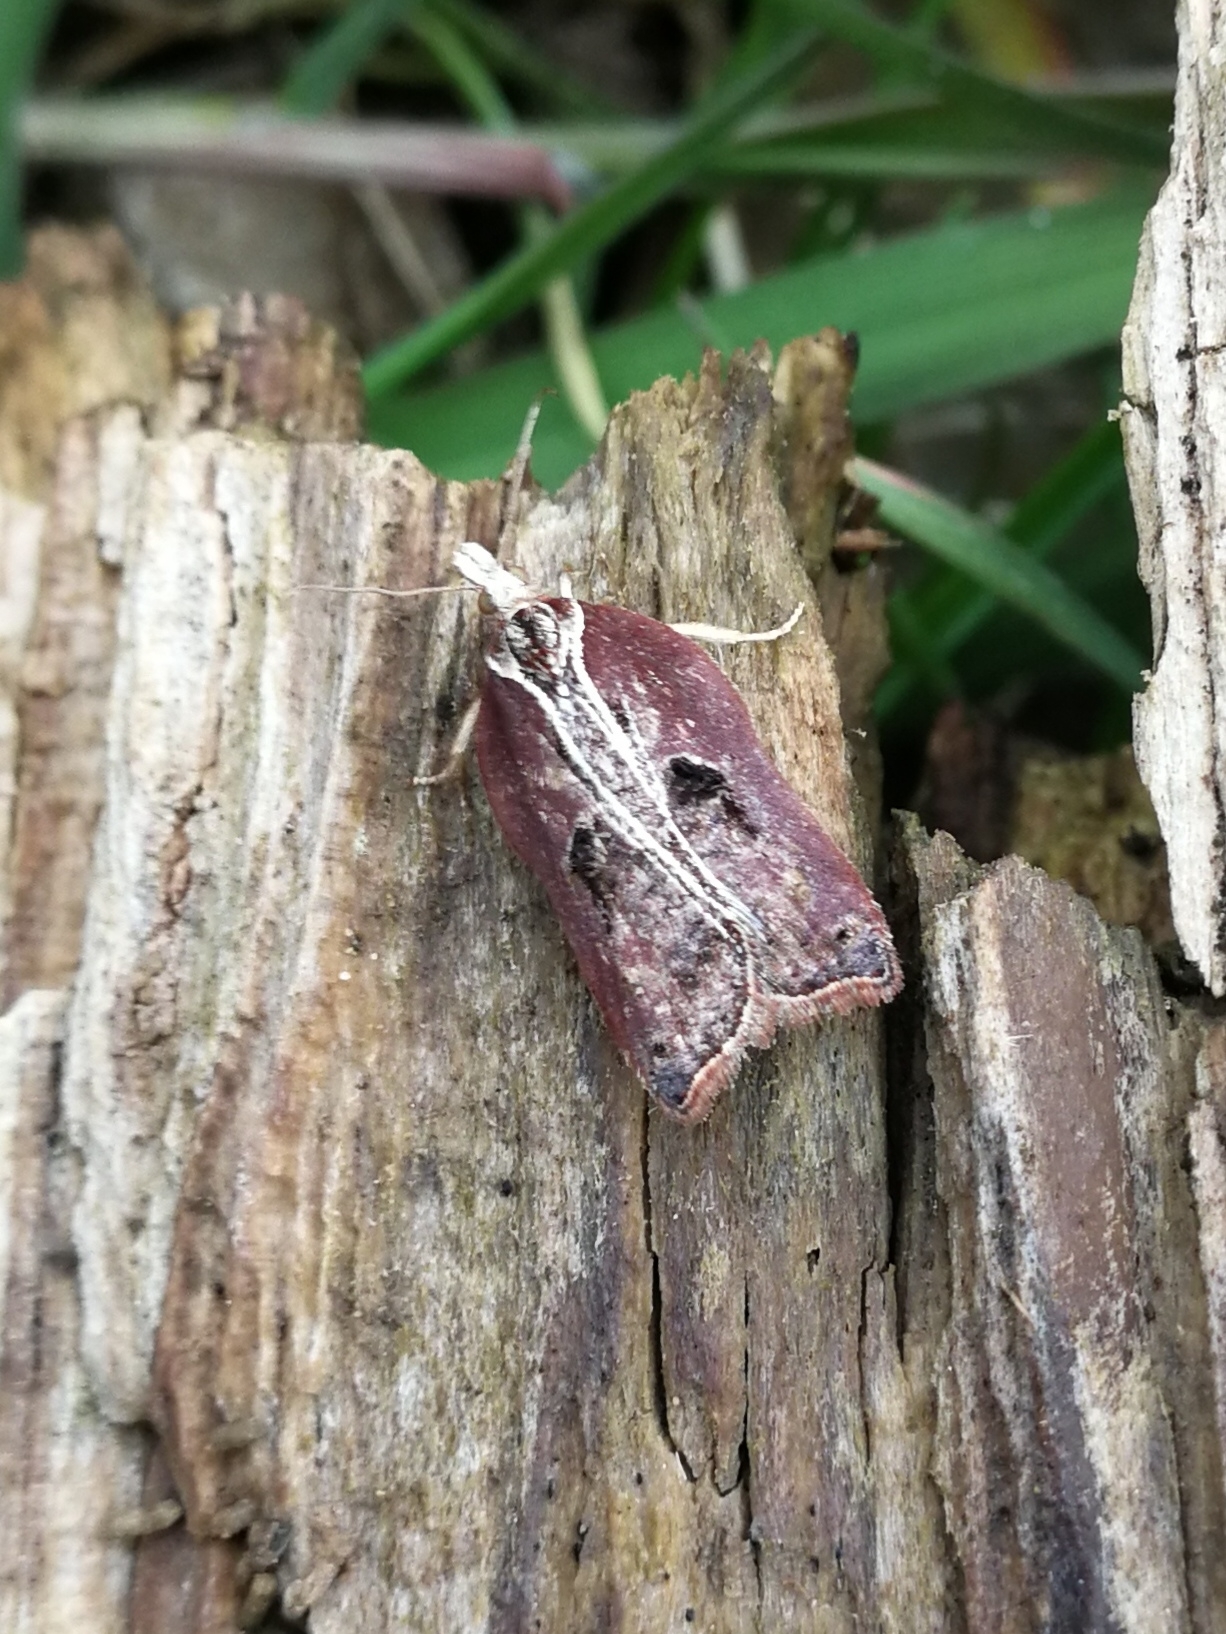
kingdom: Animalia
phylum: Arthropoda
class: Insecta
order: Lepidoptera
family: Tortricidae
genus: Acleris
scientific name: Acleris cristana
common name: Tufted button
